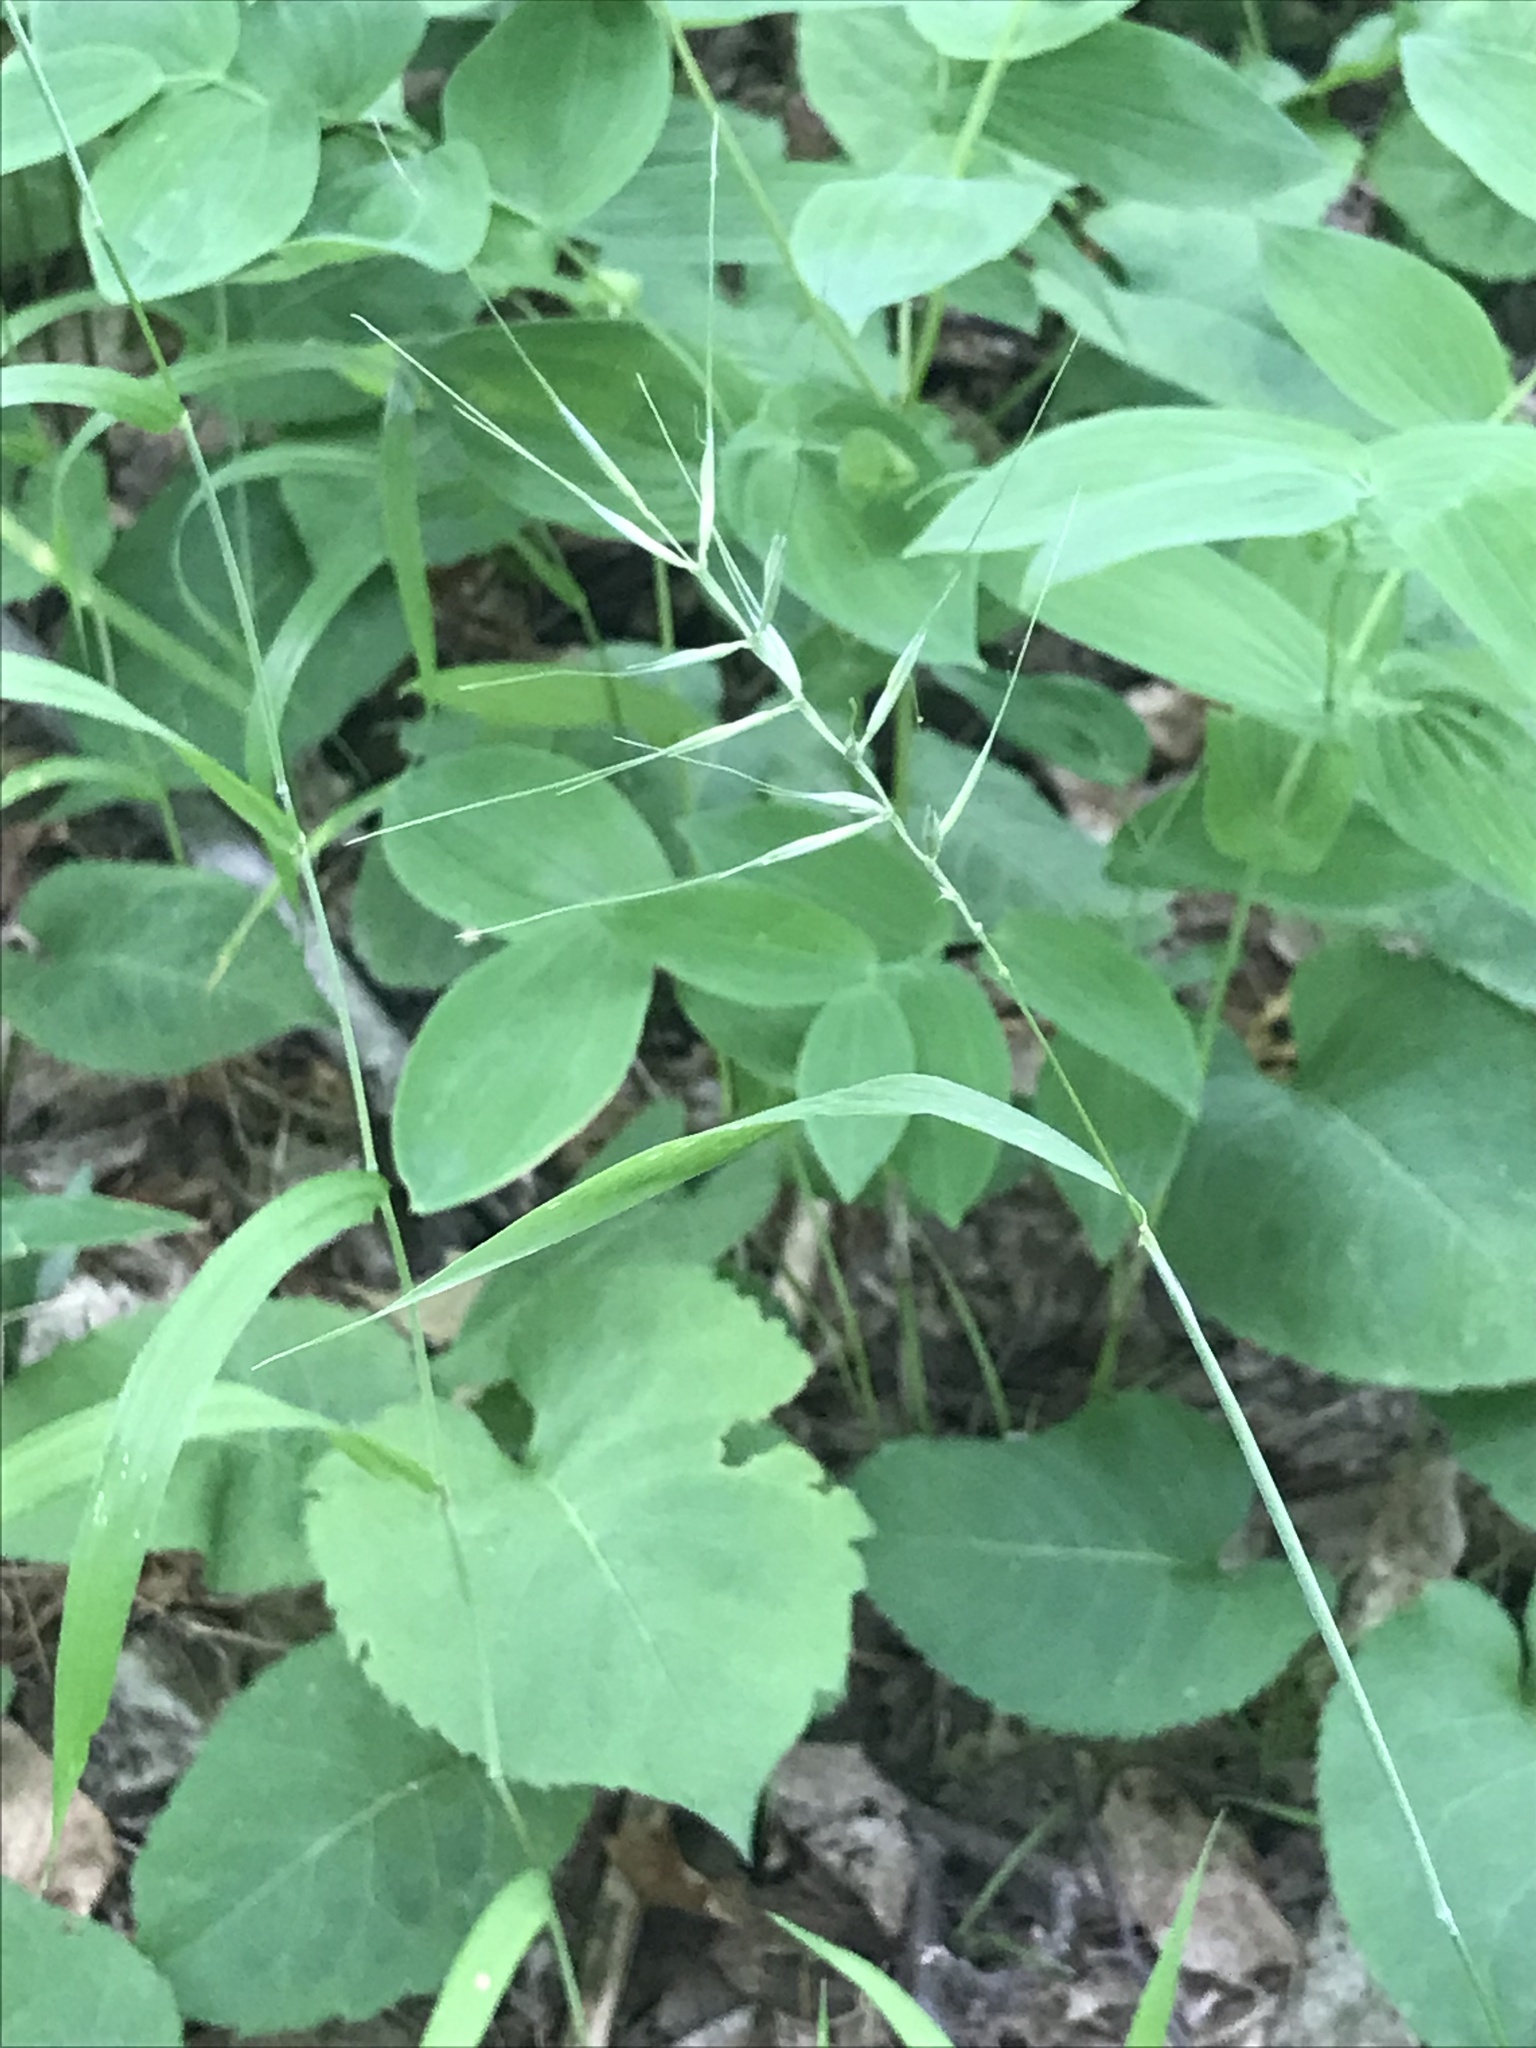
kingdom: Plantae
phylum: Tracheophyta
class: Liliopsida
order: Poales
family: Poaceae
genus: Elymus
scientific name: Elymus hystrix
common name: Bottlebrush grass
